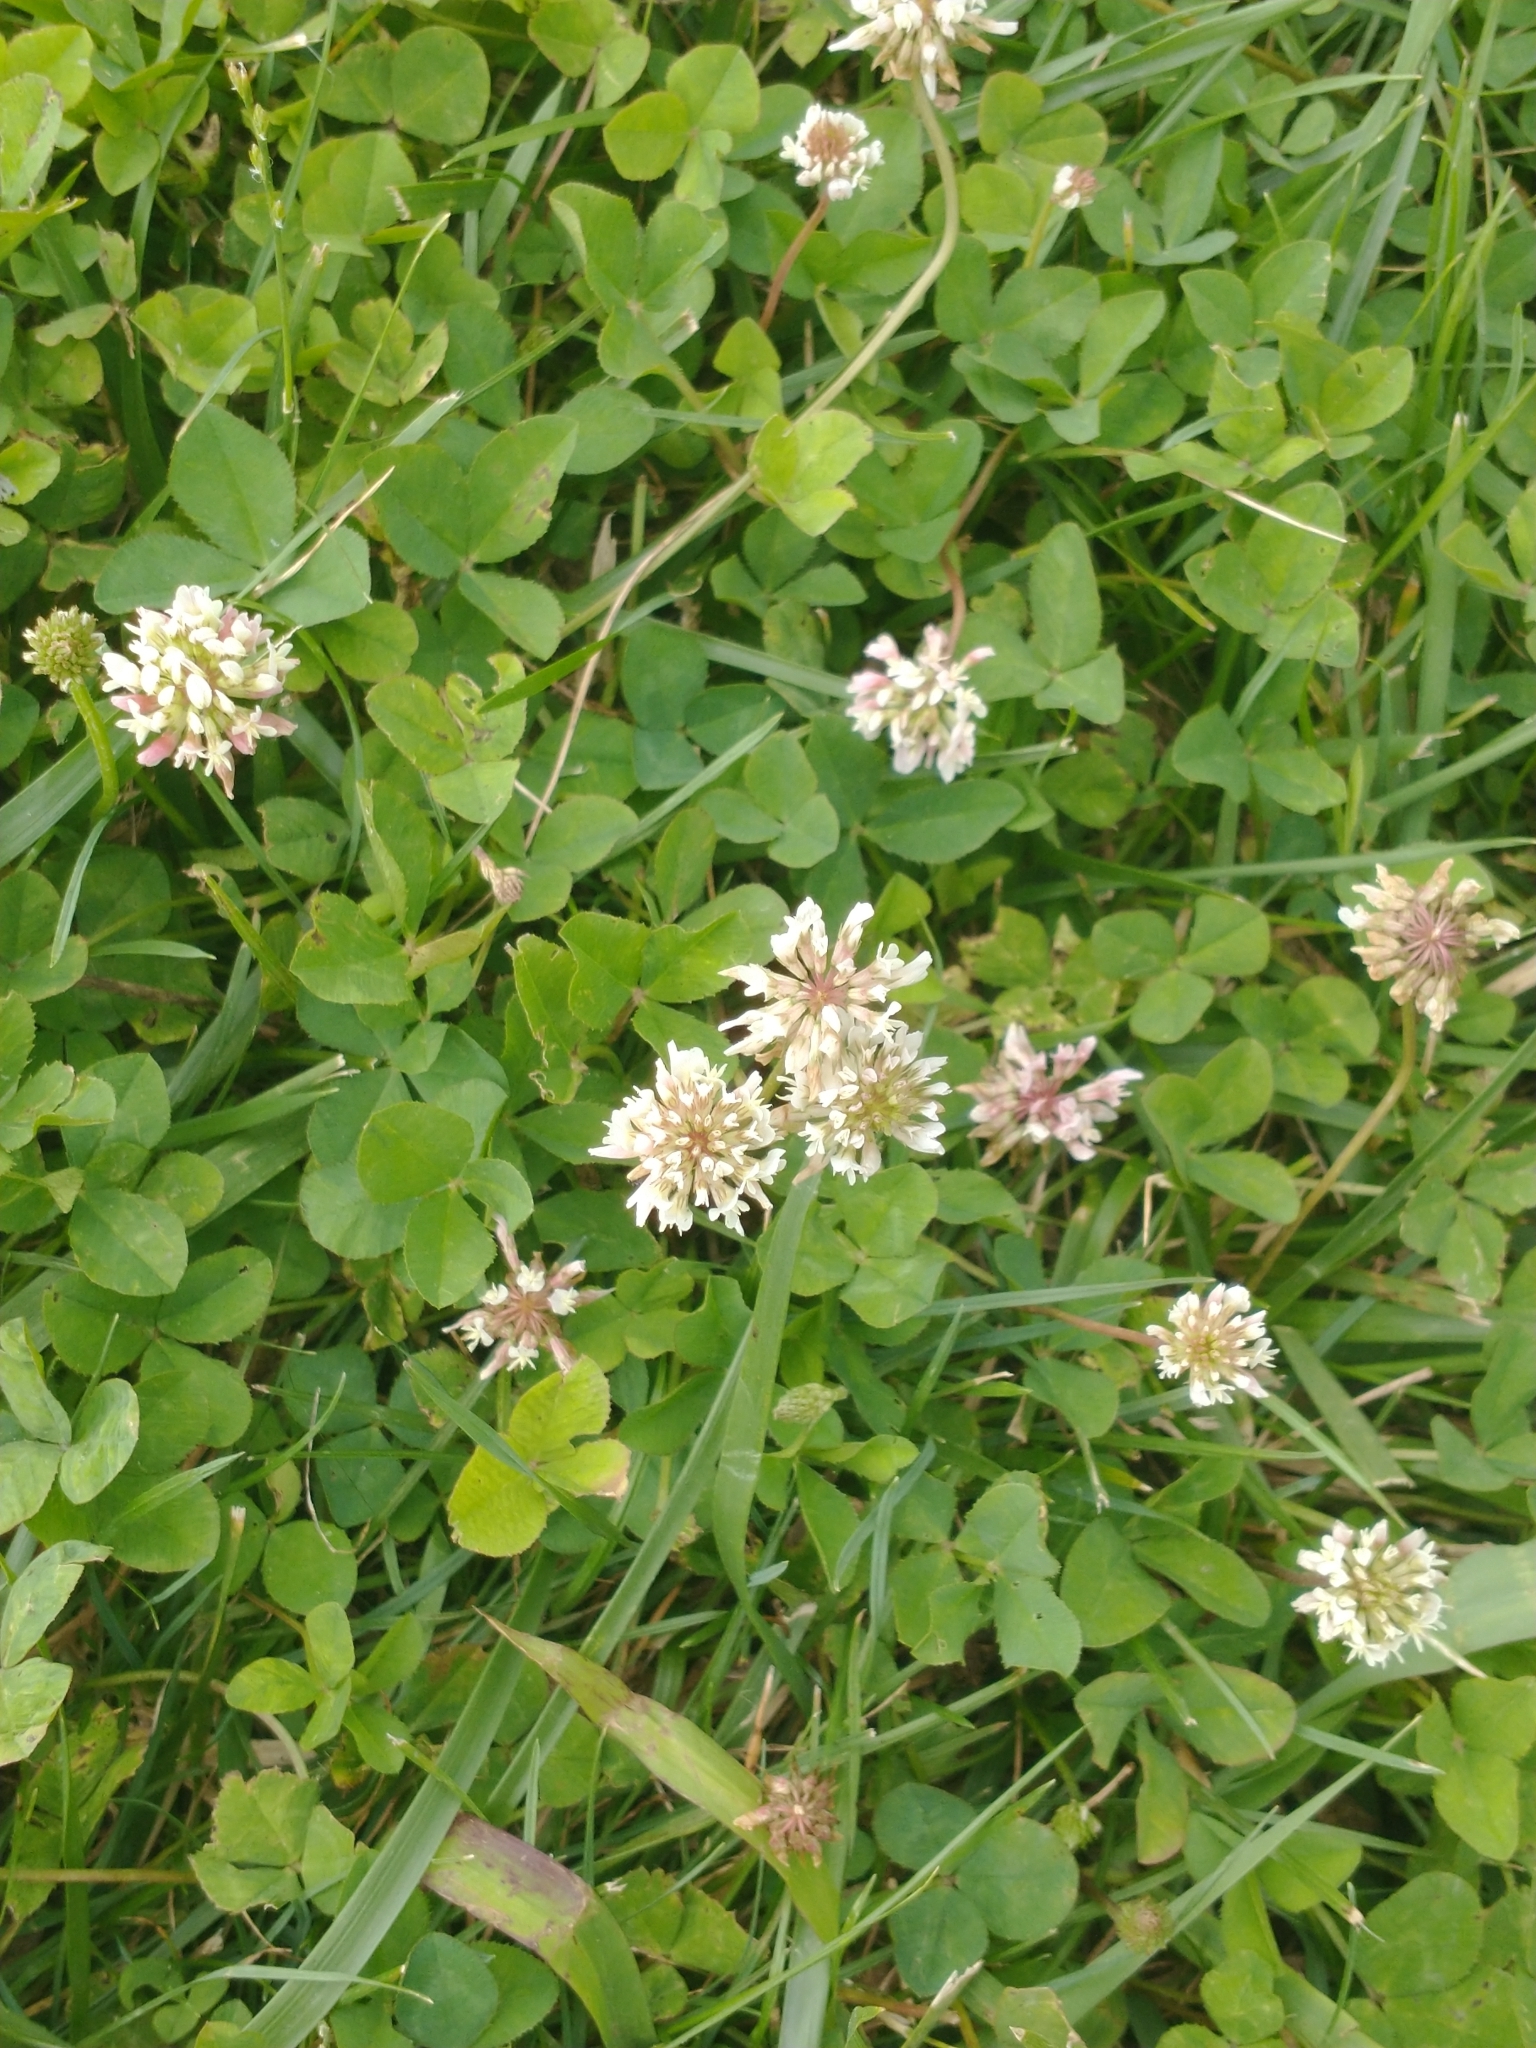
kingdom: Plantae
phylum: Tracheophyta
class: Magnoliopsida
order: Fabales
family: Fabaceae
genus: Trifolium
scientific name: Trifolium repens
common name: White clover
